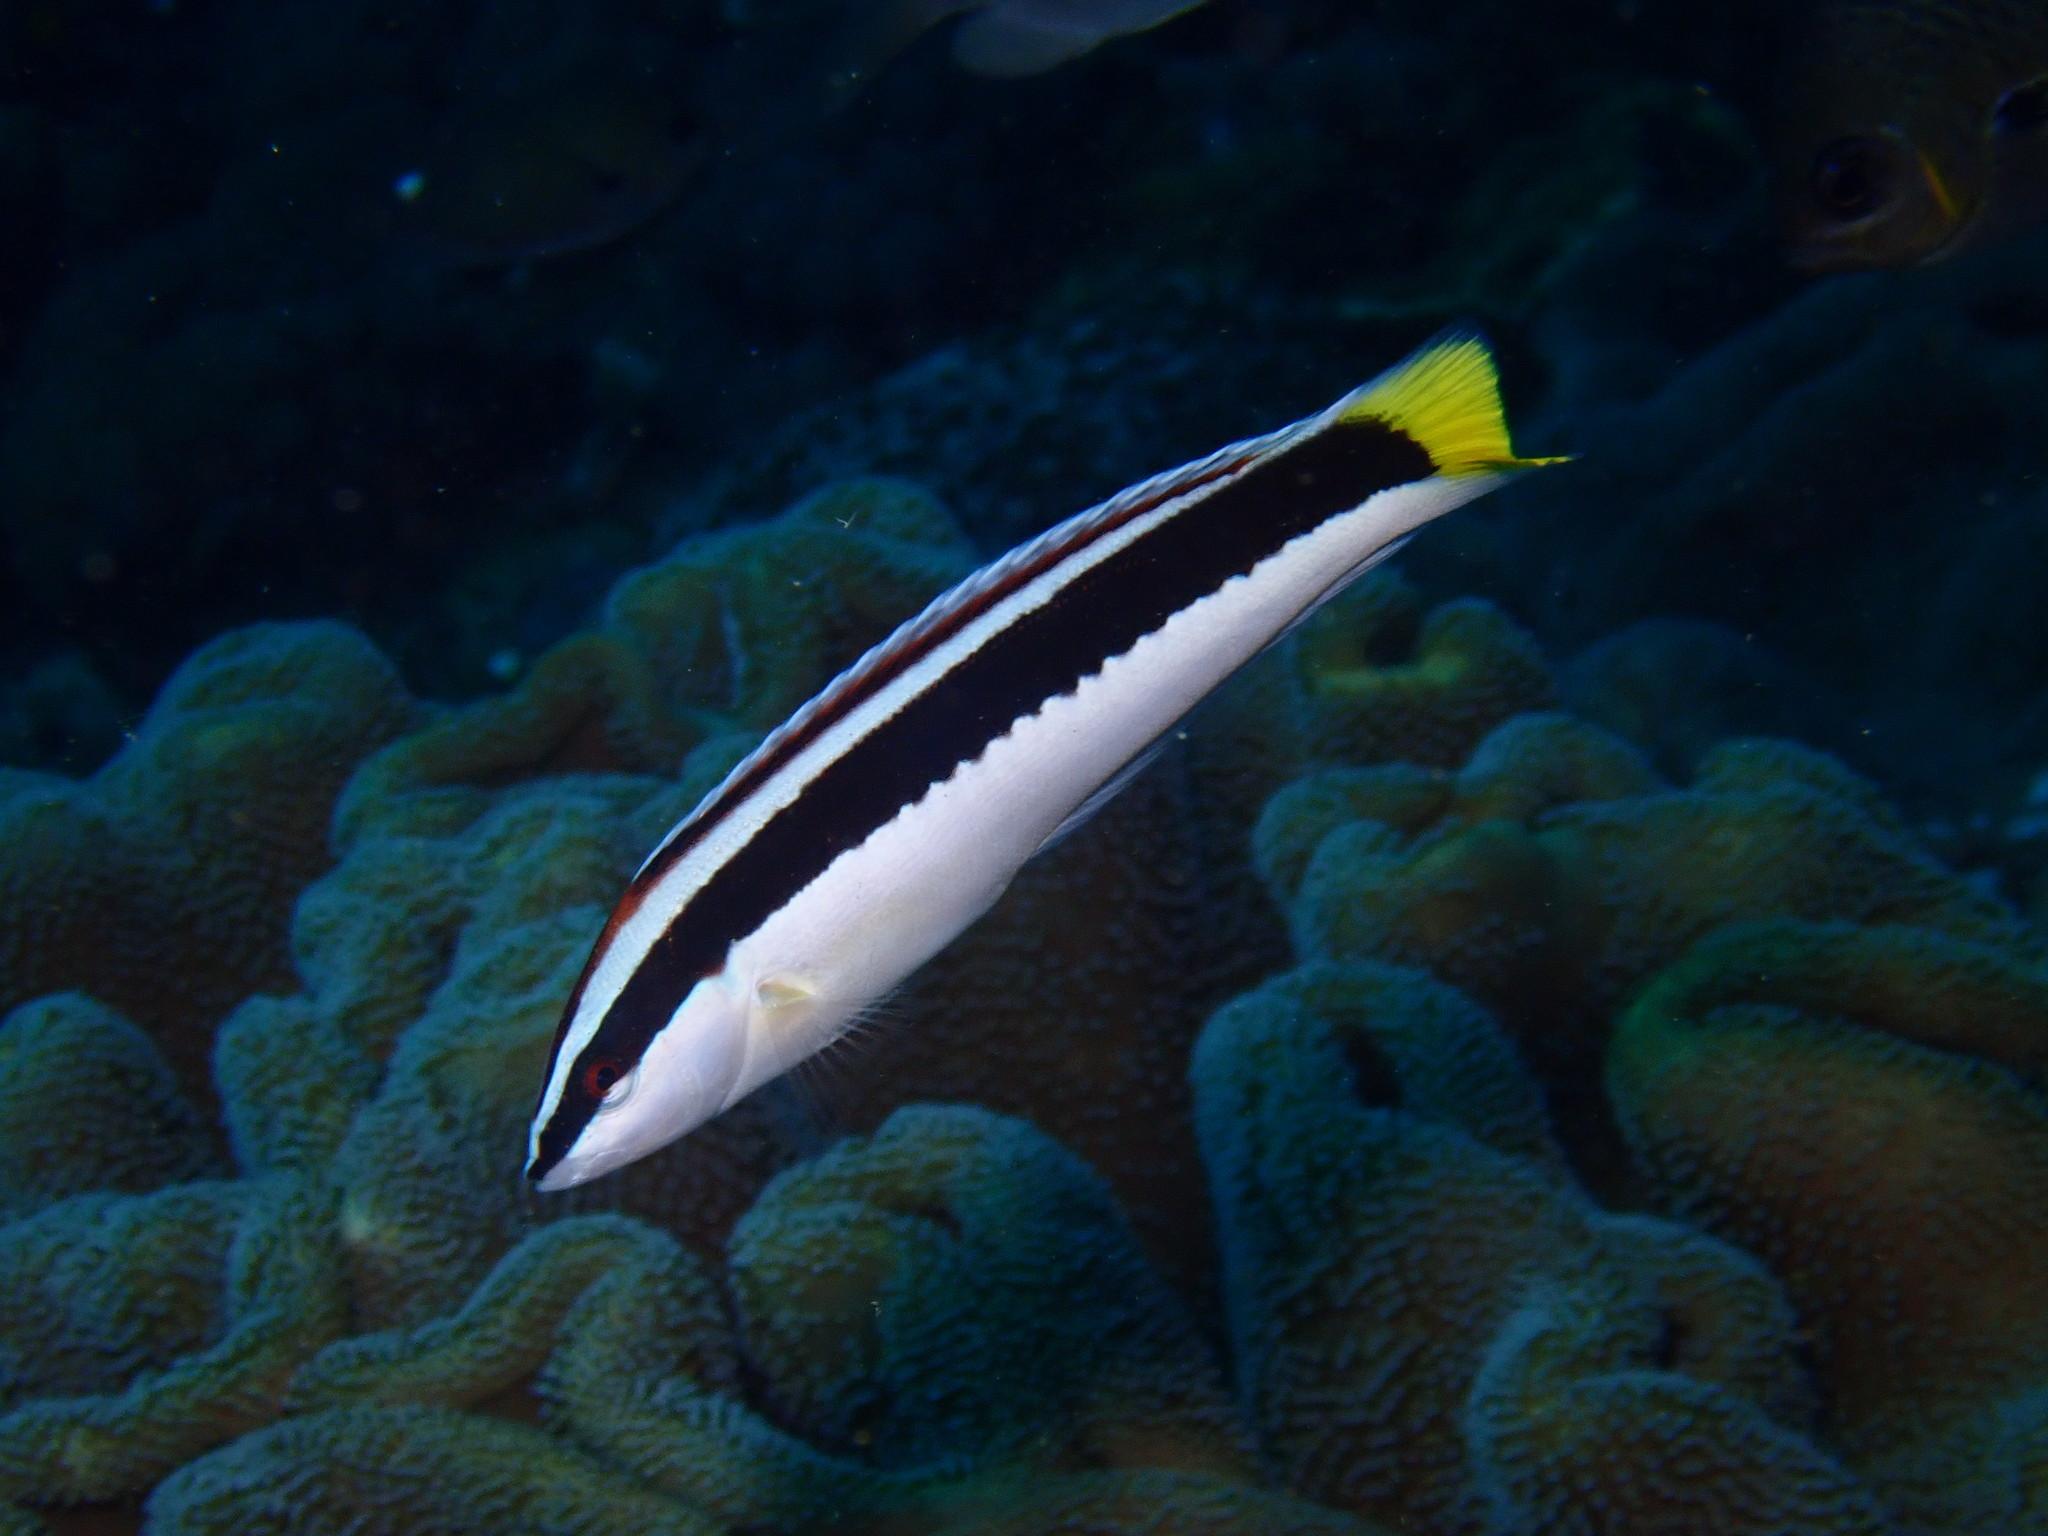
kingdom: Animalia
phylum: Chordata
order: Perciformes
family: Labridae
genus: Coris
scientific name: Coris picta
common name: Combfish
